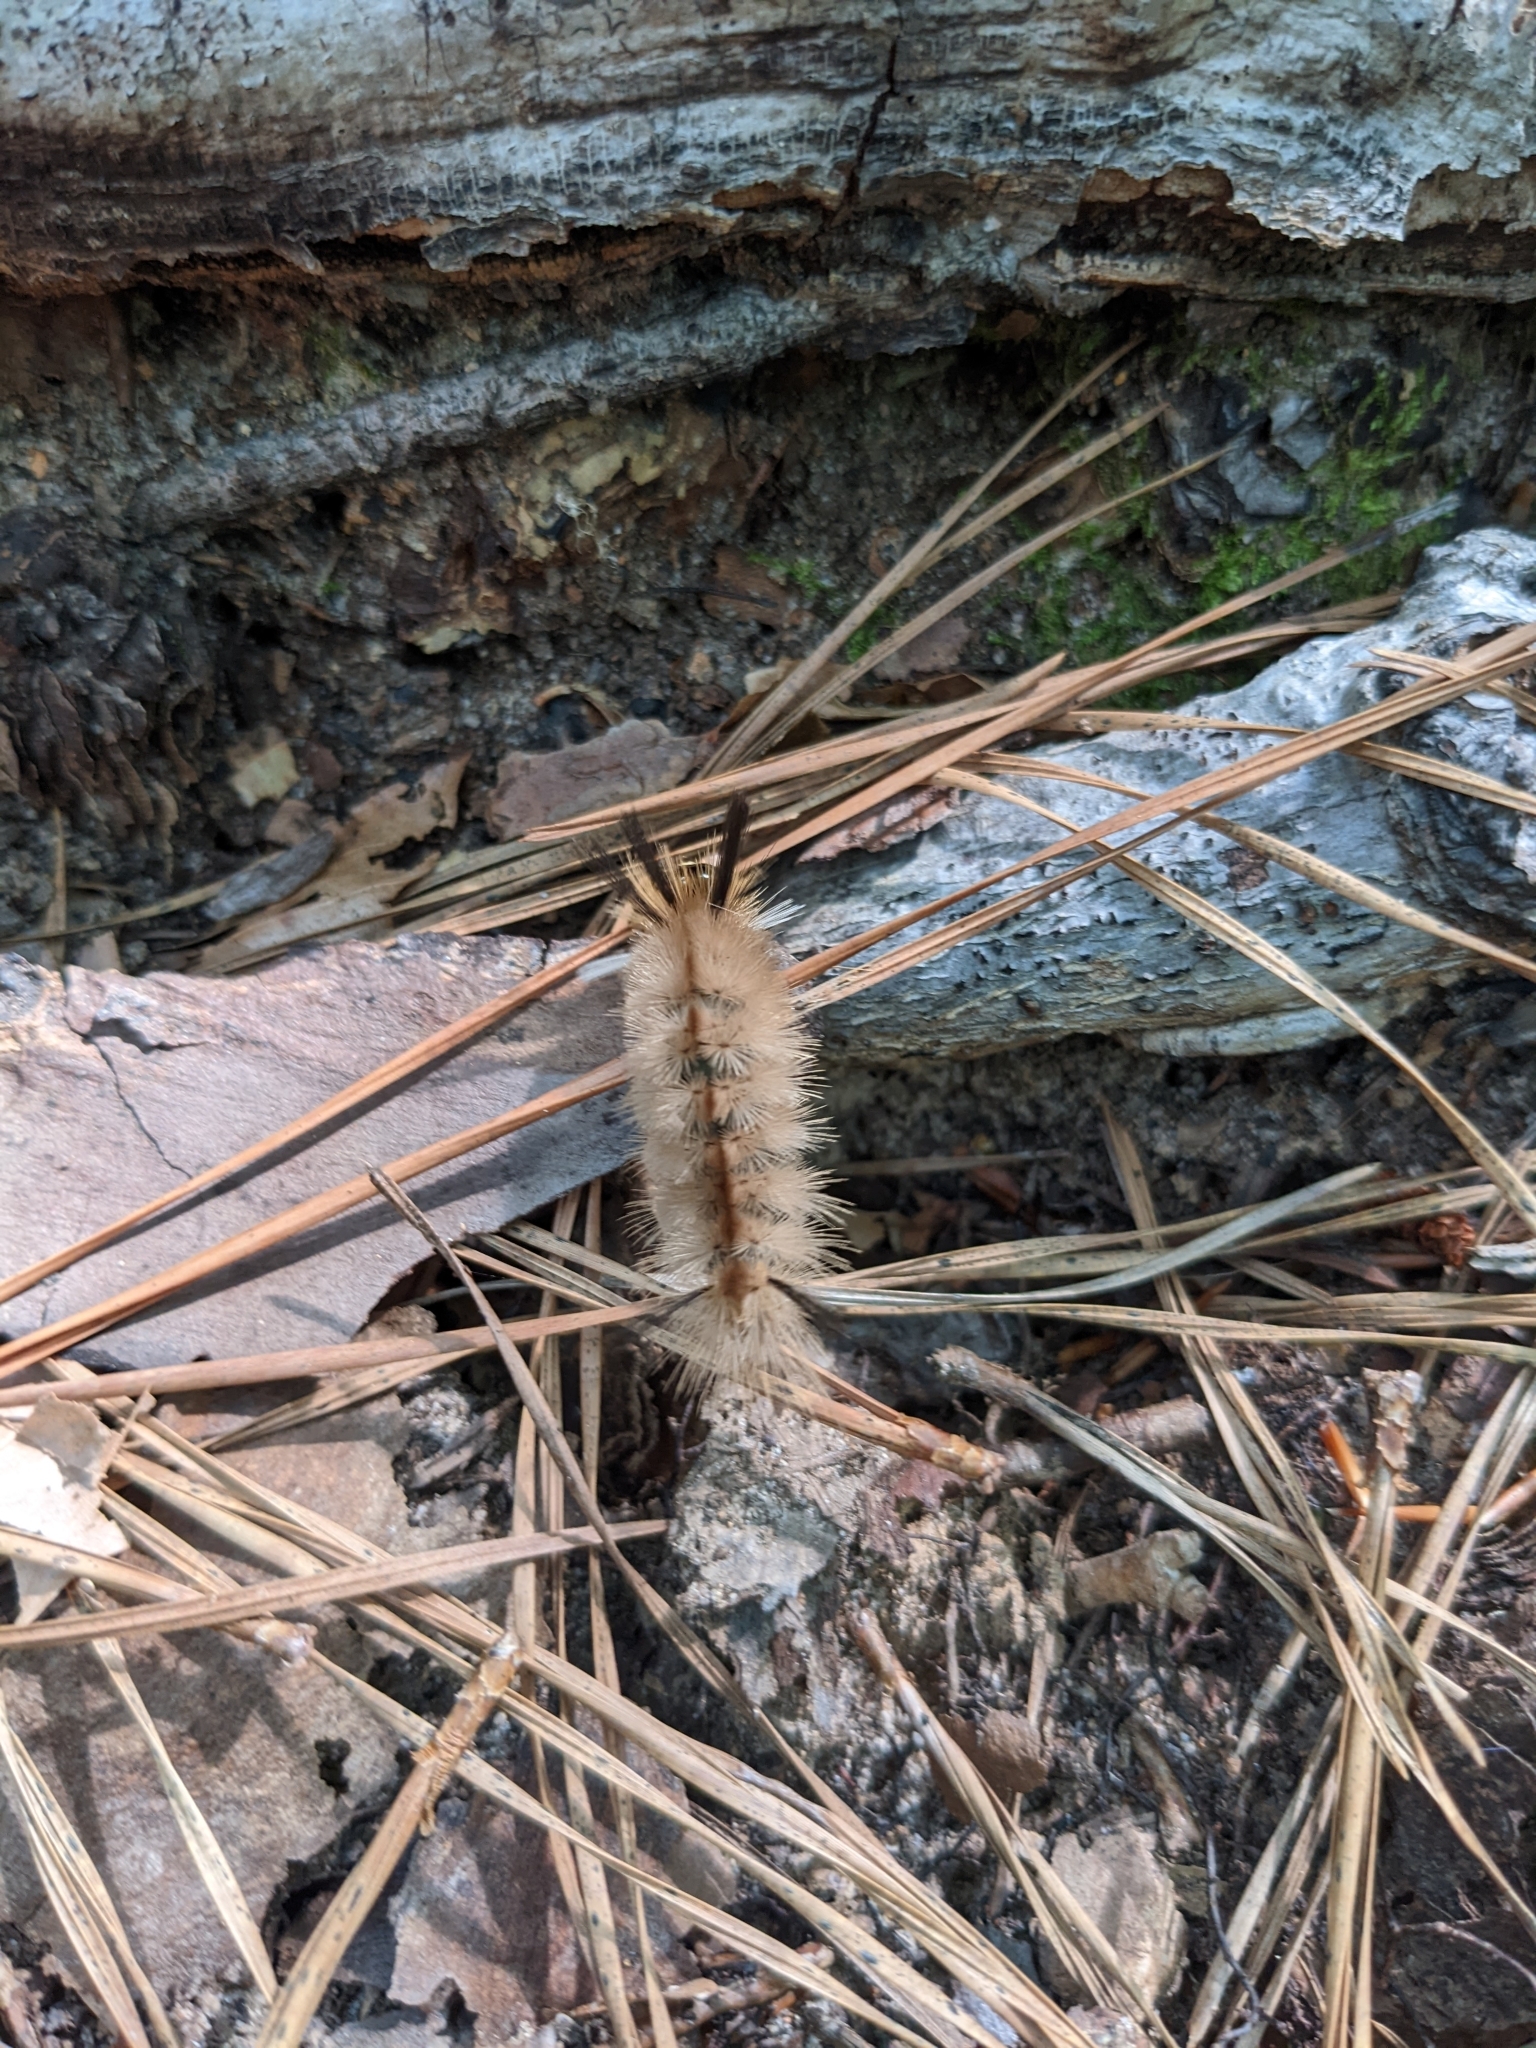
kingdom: Animalia
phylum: Arthropoda
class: Insecta
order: Lepidoptera
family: Erebidae
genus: Halysidota
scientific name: Halysidota tessellaris
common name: Banded tussock moth
